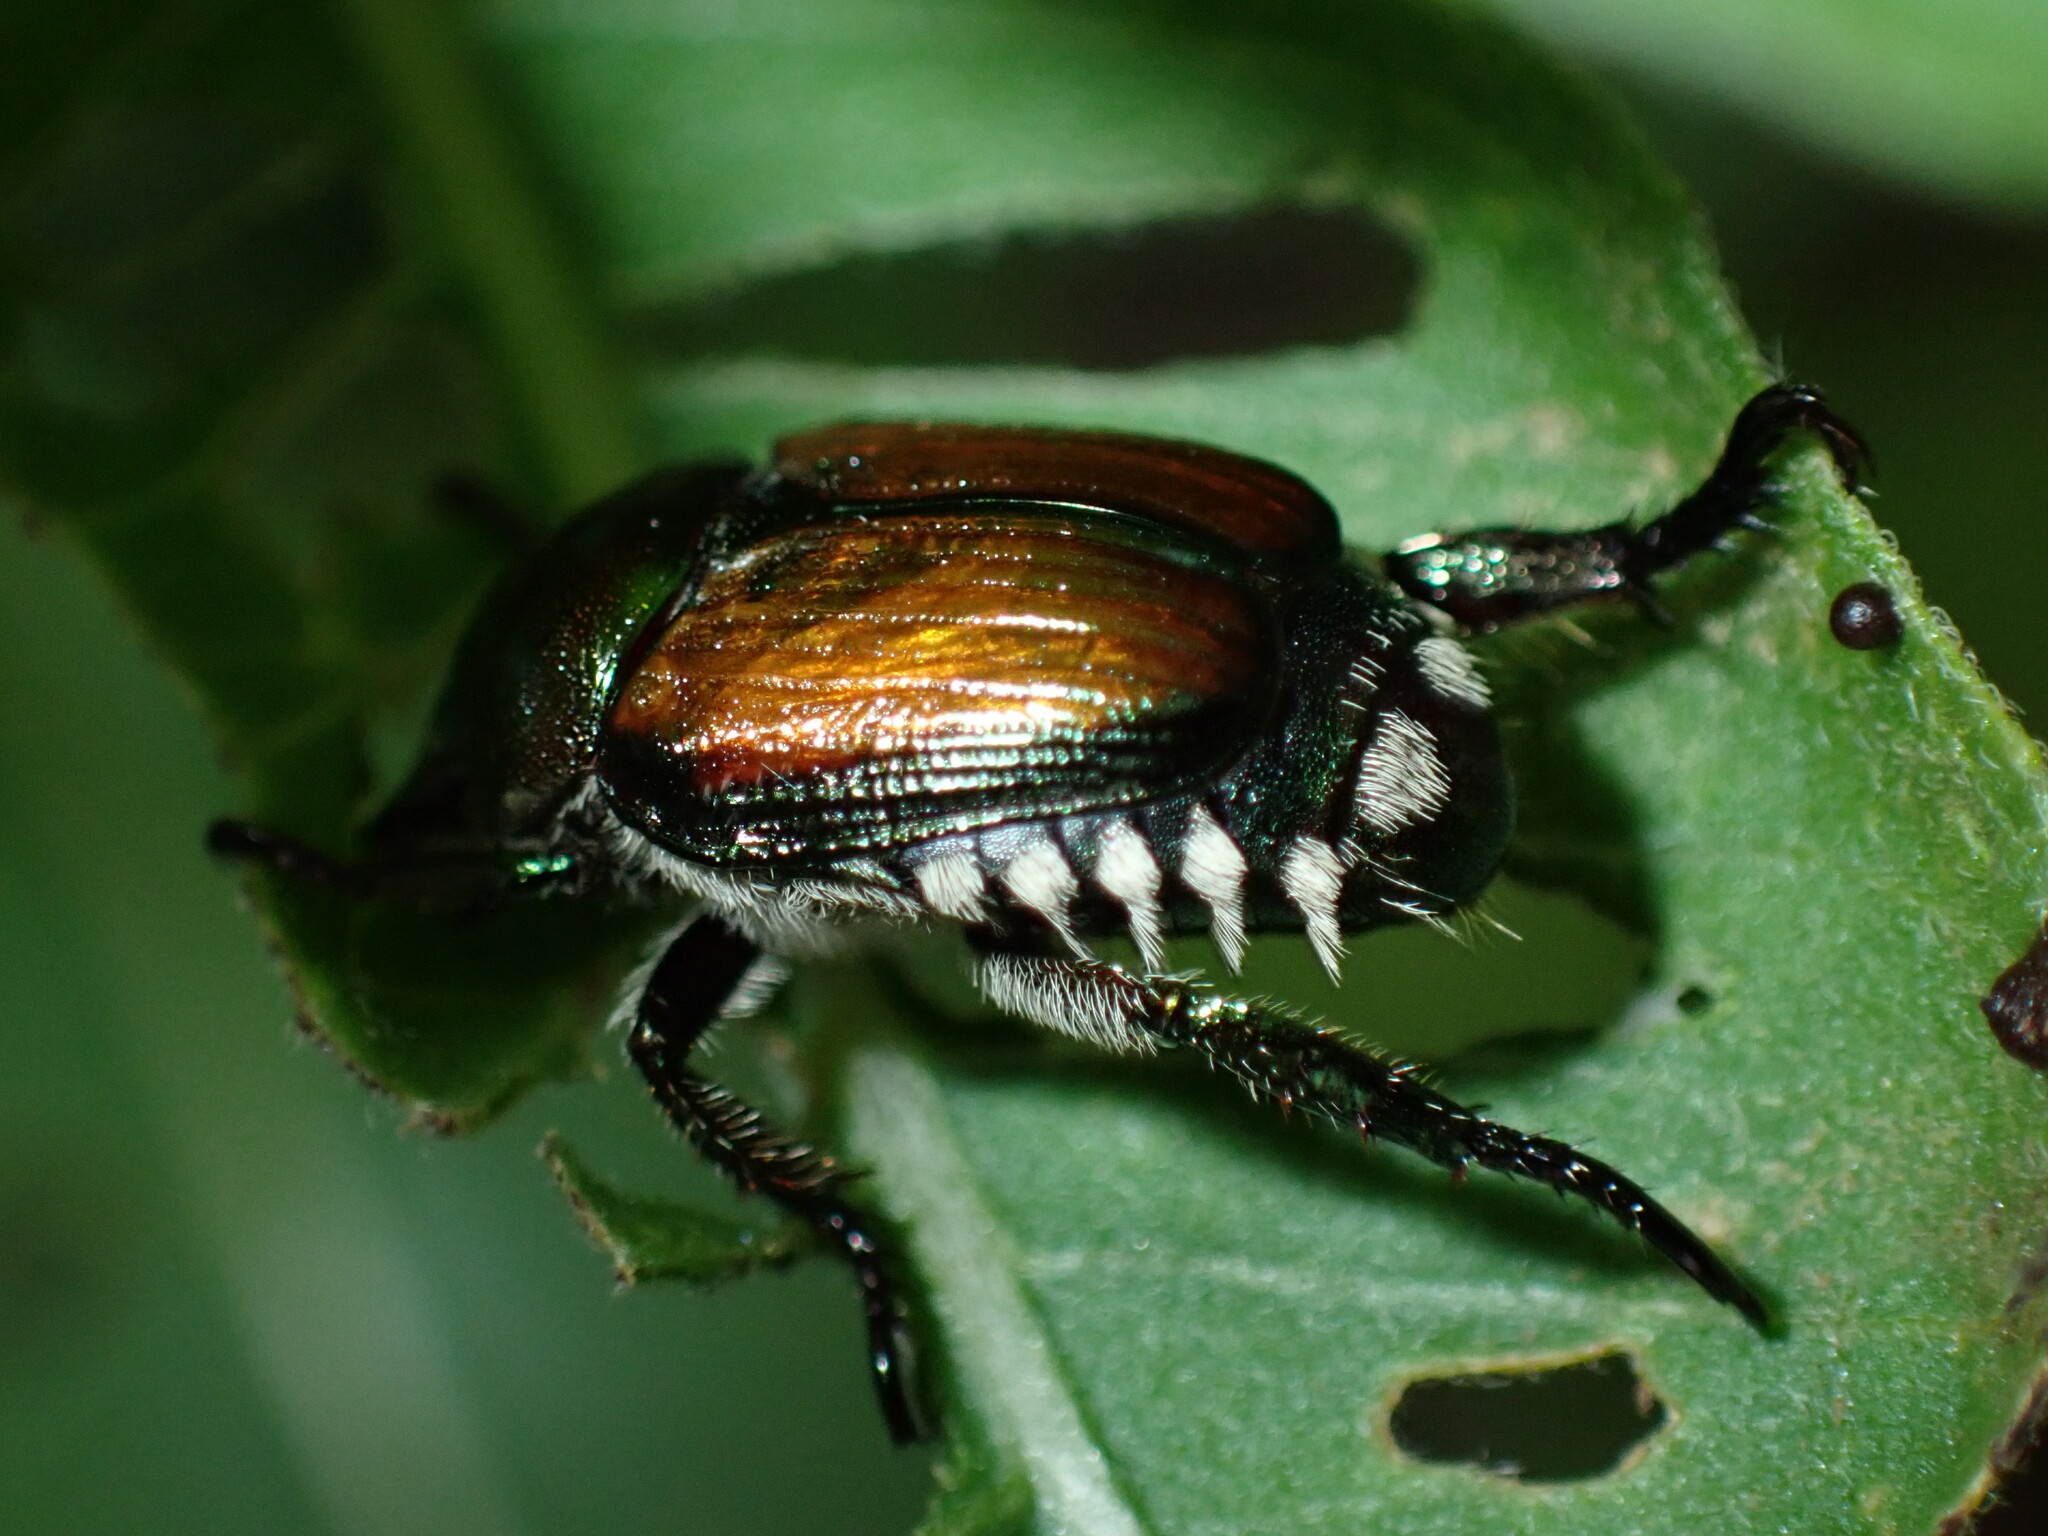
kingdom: Animalia
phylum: Arthropoda
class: Insecta
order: Coleoptera
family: Scarabaeidae
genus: Popillia
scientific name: Popillia japonica
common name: Japanese beetle
